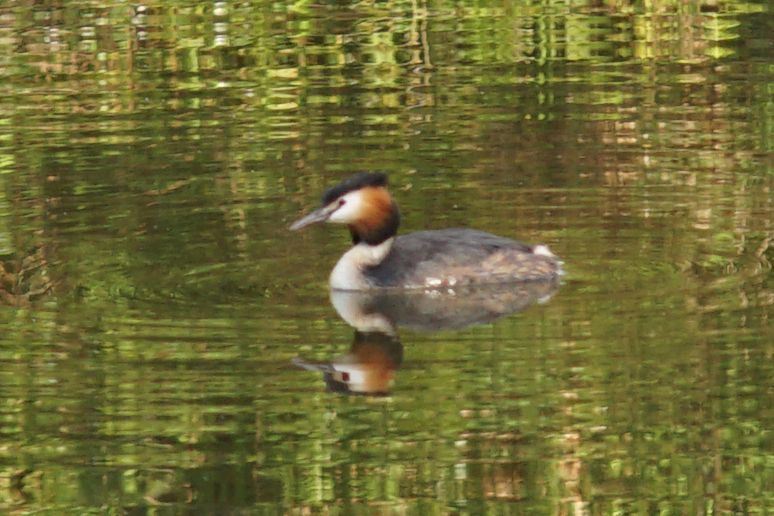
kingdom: Animalia
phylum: Chordata
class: Aves
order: Podicipediformes
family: Podicipedidae
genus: Podiceps
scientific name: Podiceps cristatus
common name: Great crested grebe
